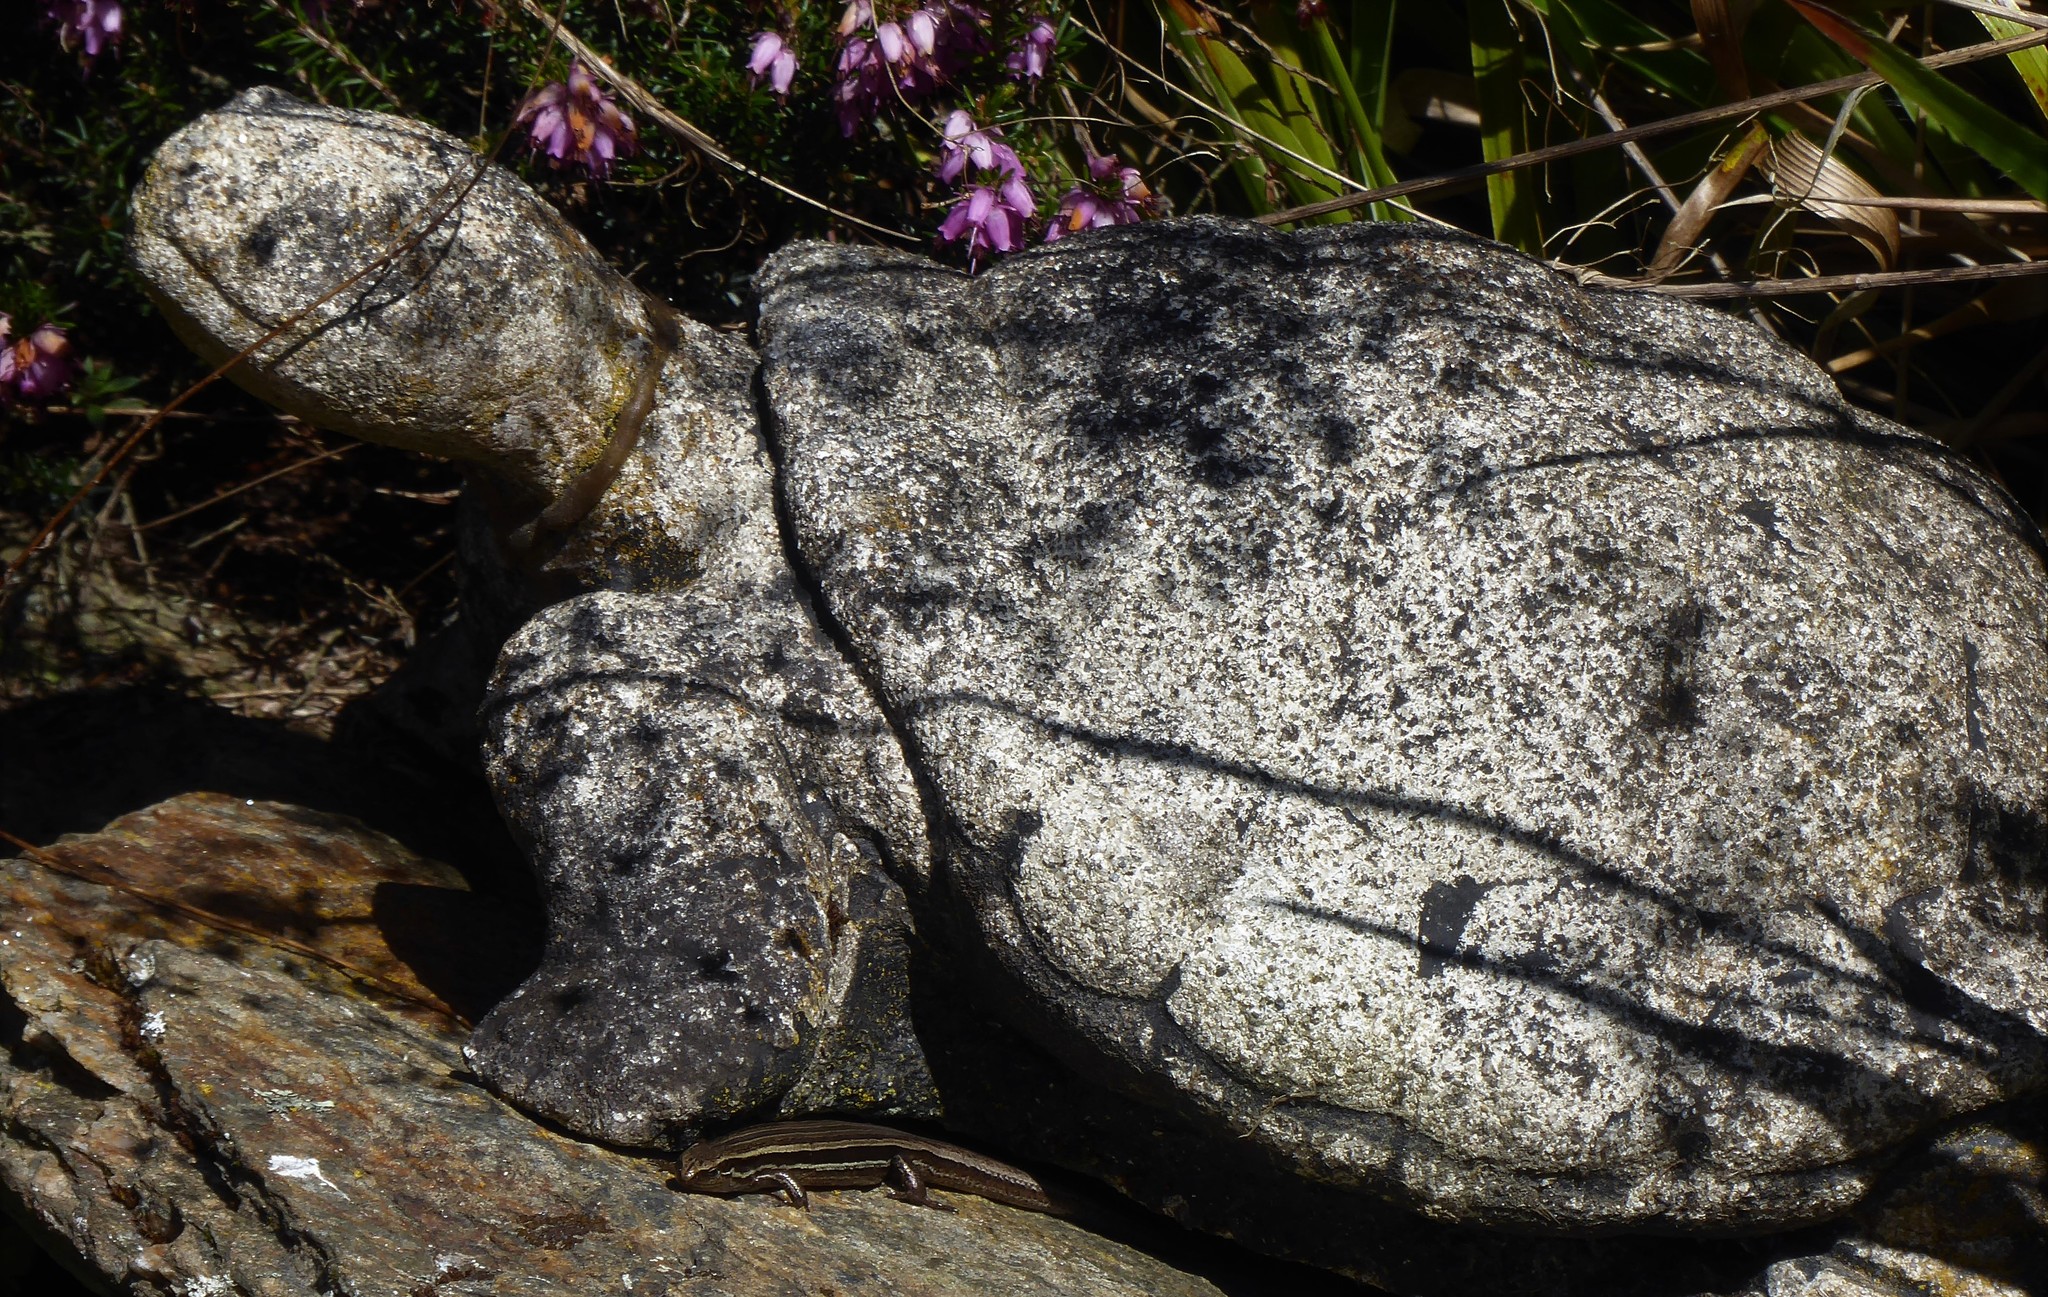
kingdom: Animalia
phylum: Chordata
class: Squamata
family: Scincidae
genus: Oligosoma
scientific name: Oligosoma polychroma
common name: Common new zealand skink
